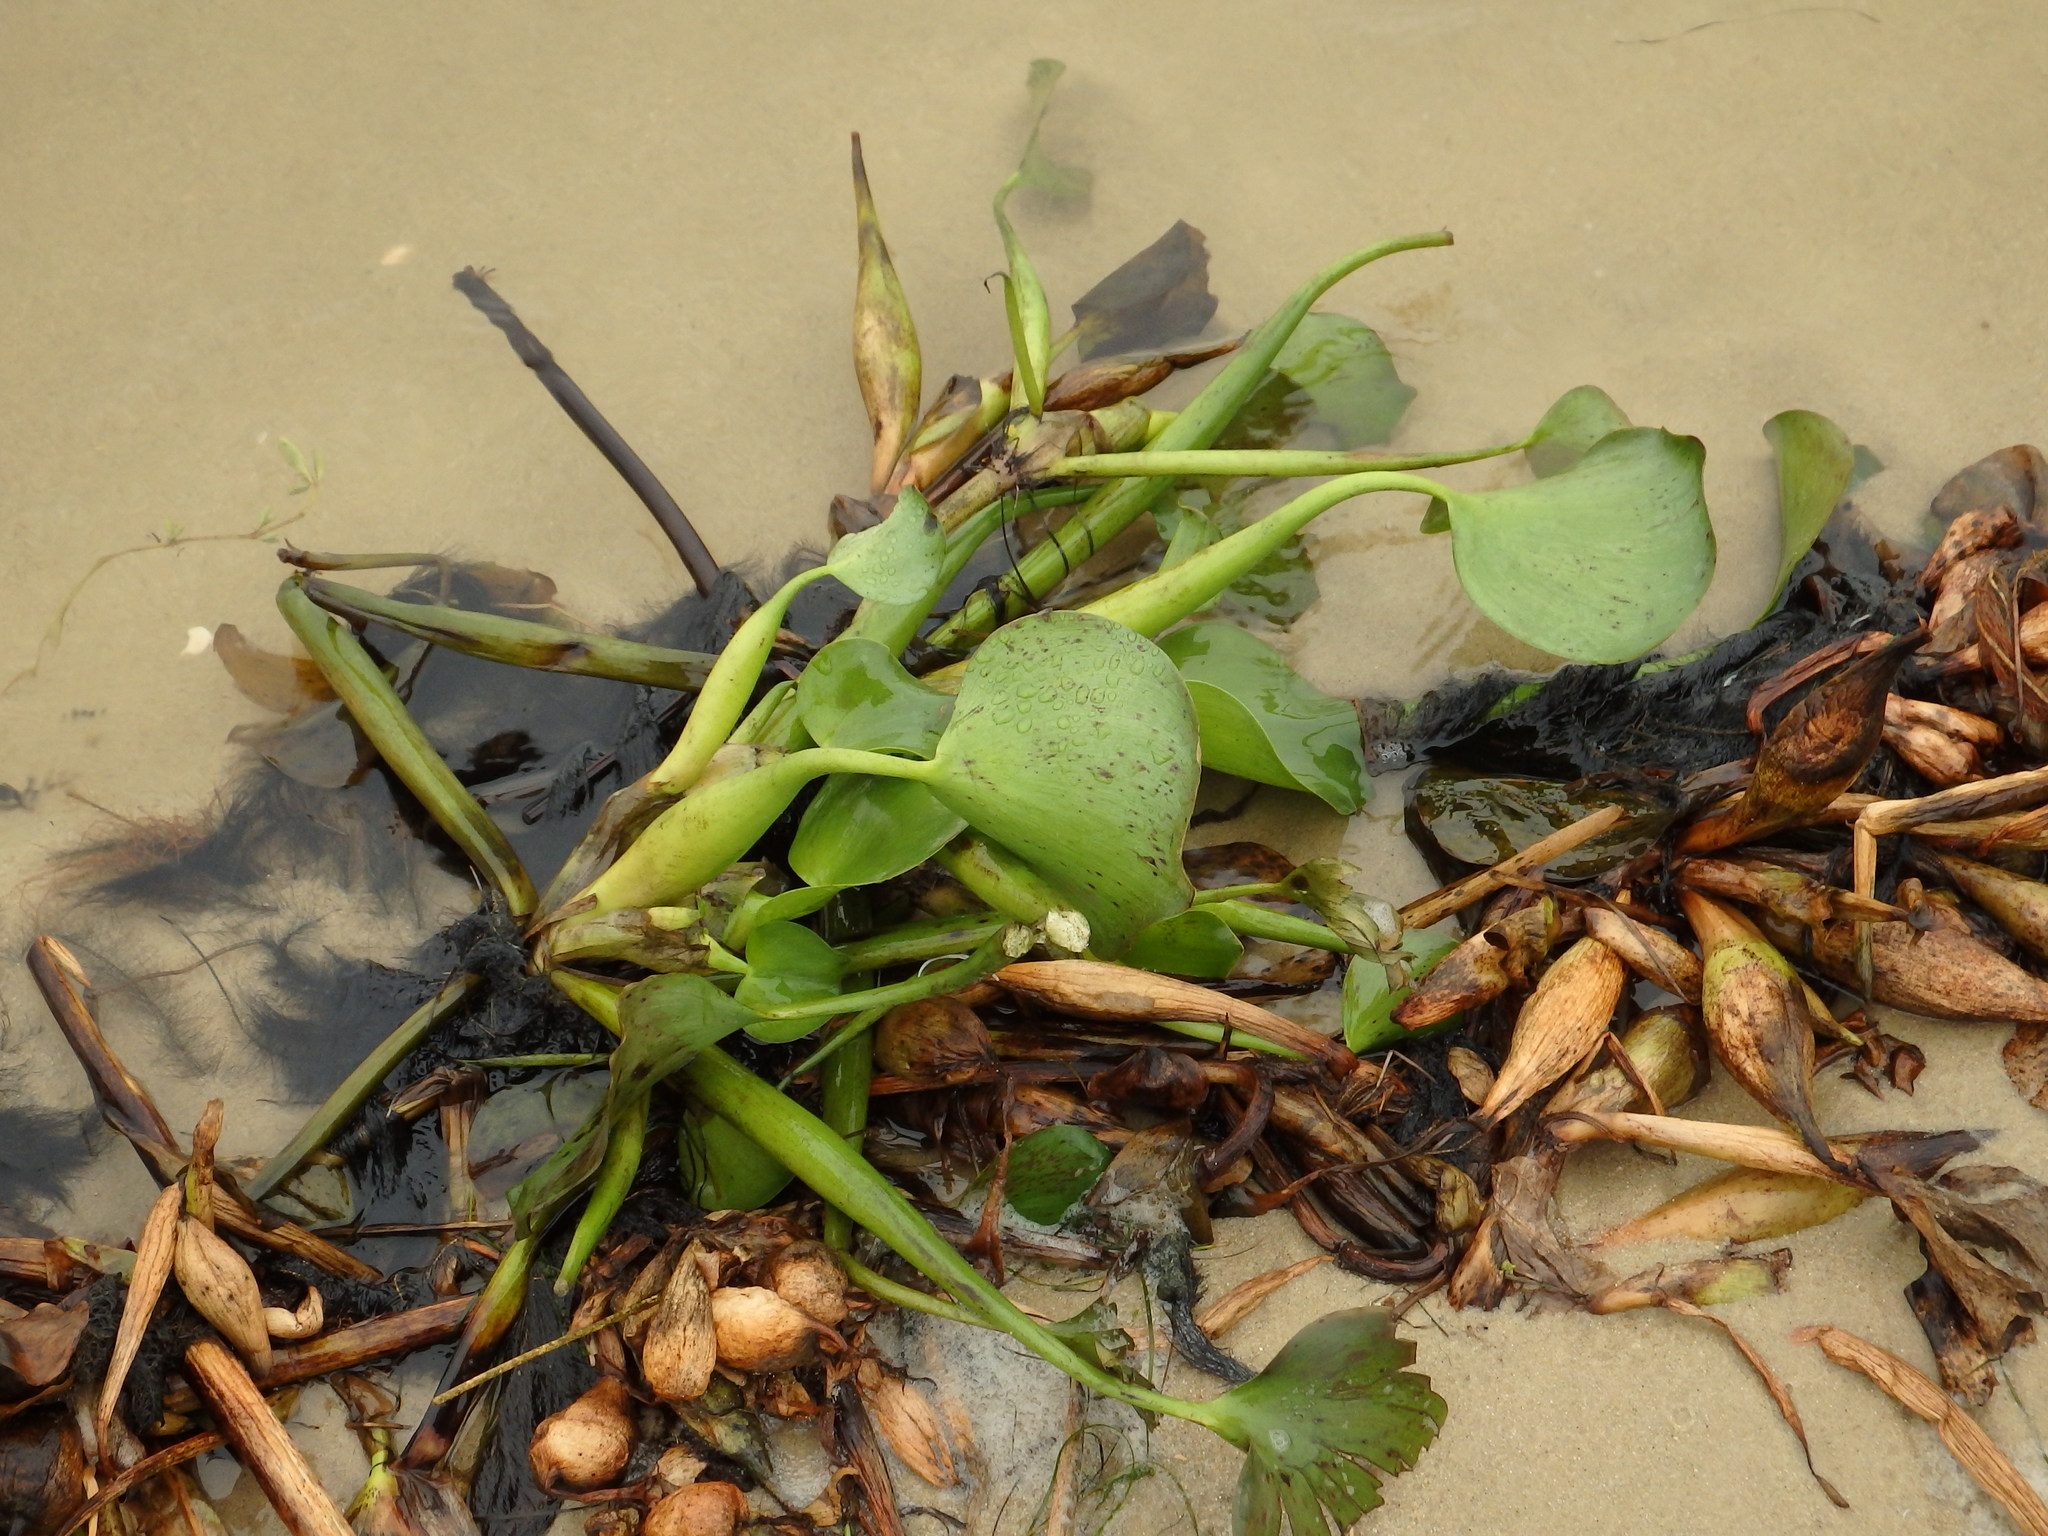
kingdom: Plantae
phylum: Tracheophyta
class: Liliopsida
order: Commelinales
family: Pontederiaceae
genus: Pontederia
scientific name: Pontederia crassipes
